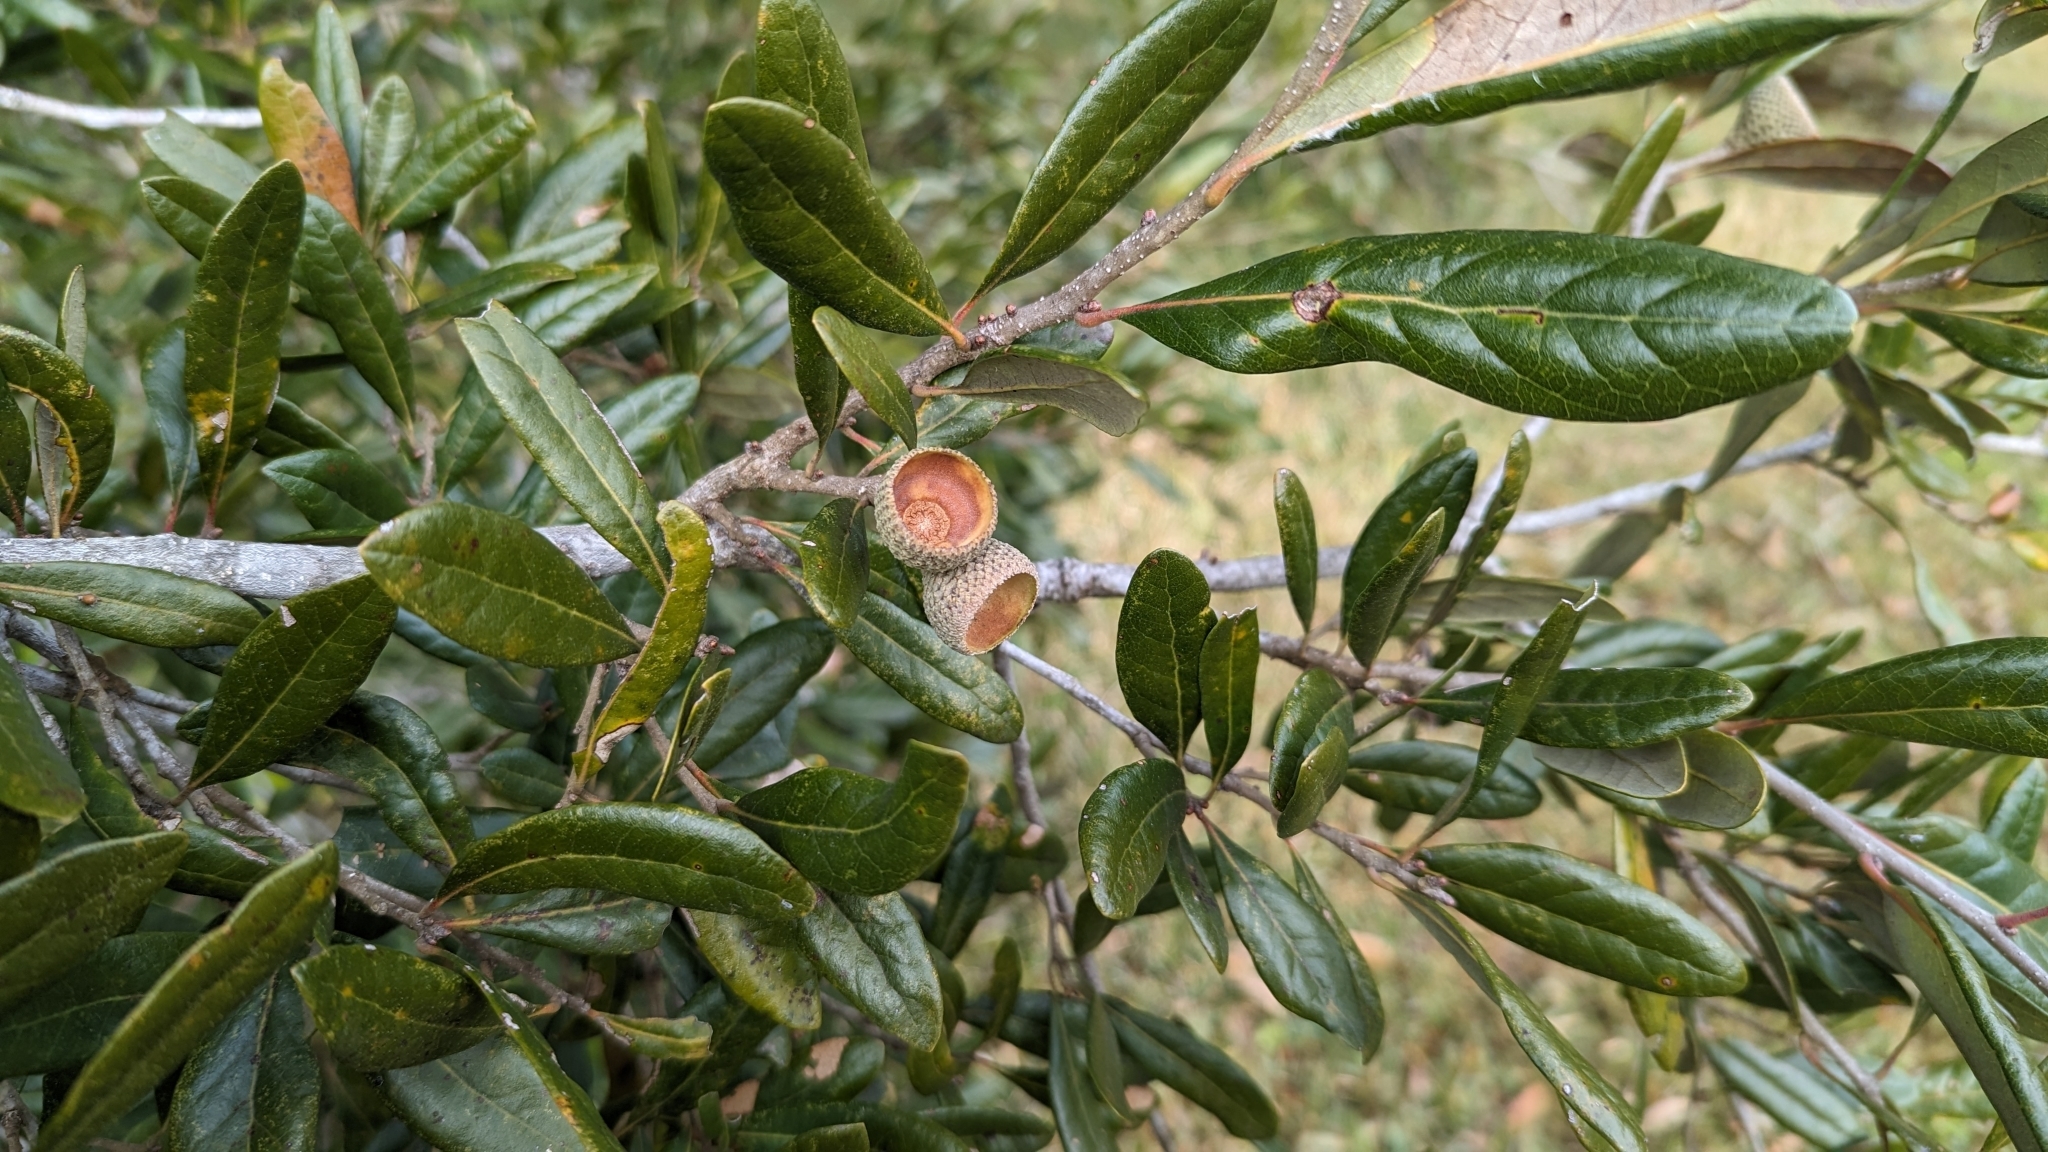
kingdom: Plantae
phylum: Tracheophyta
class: Magnoliopsida
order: Fagales
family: Fagaceae
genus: Quercus
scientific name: Quercus virginiana
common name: Southern live oak
